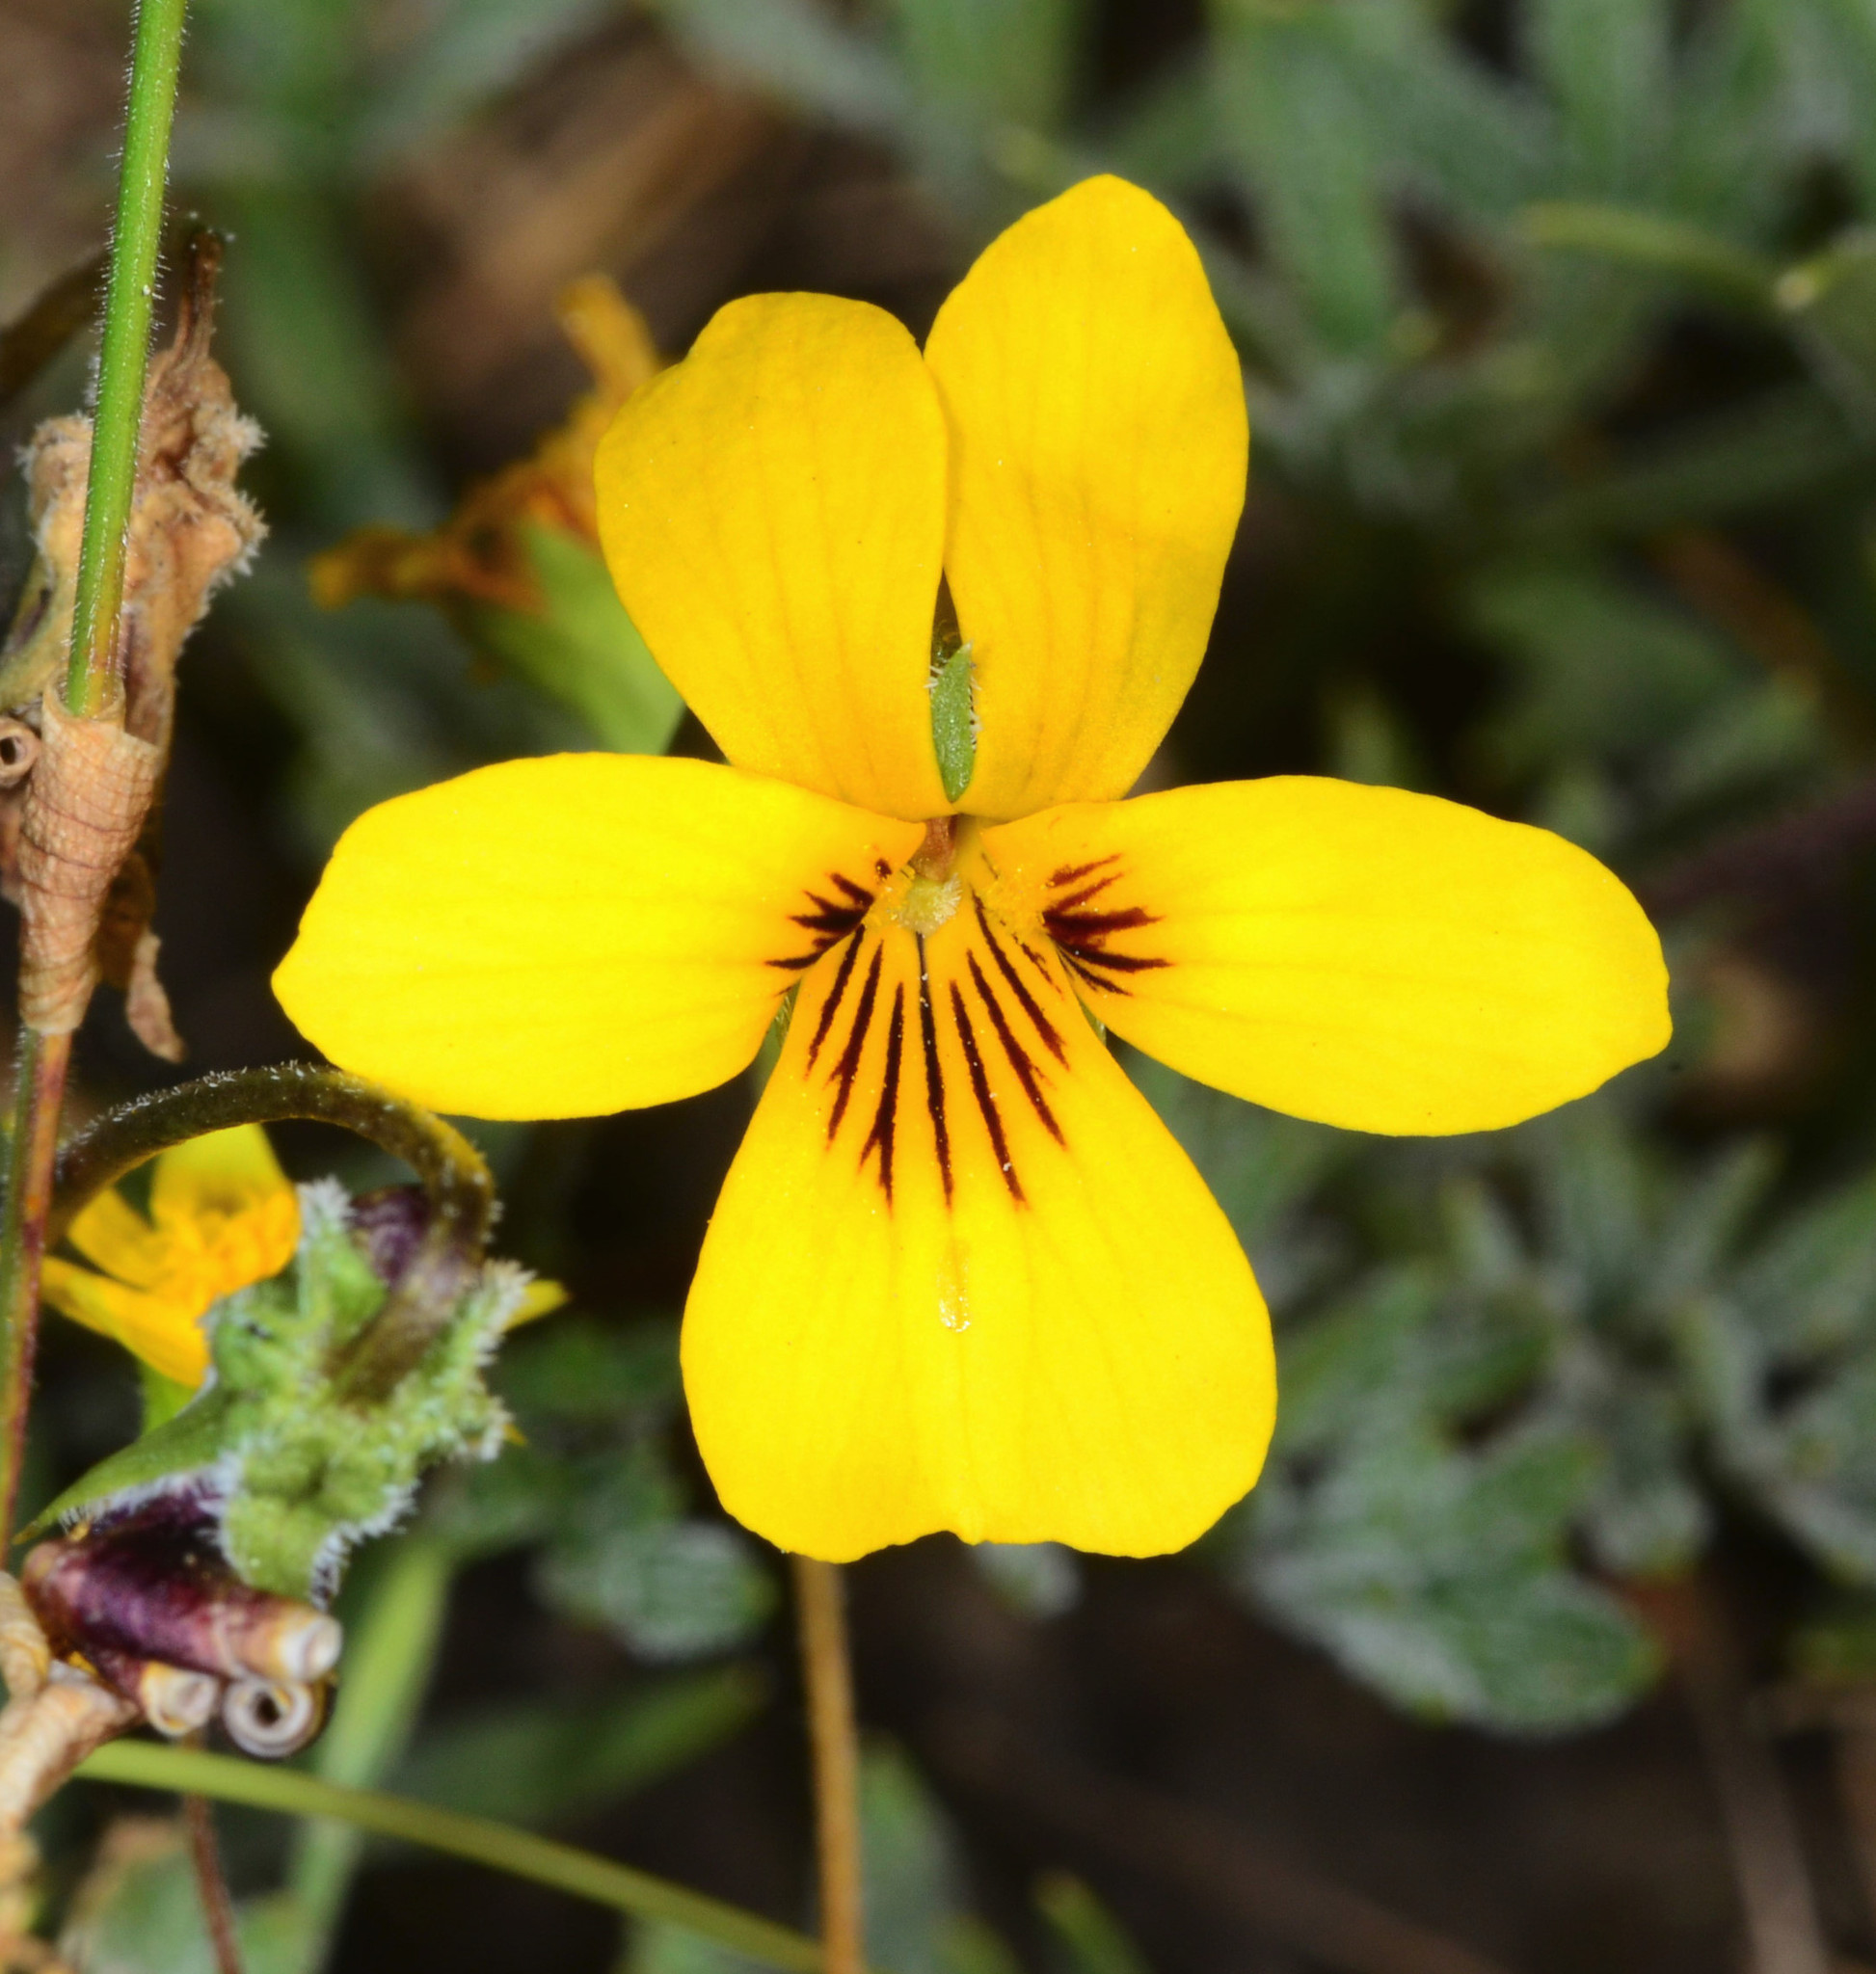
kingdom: Plantae
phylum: Tracheophyta
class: Magnoliopsida
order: Malpighiales
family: Violaceae
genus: Viola
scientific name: Viola douglasii
